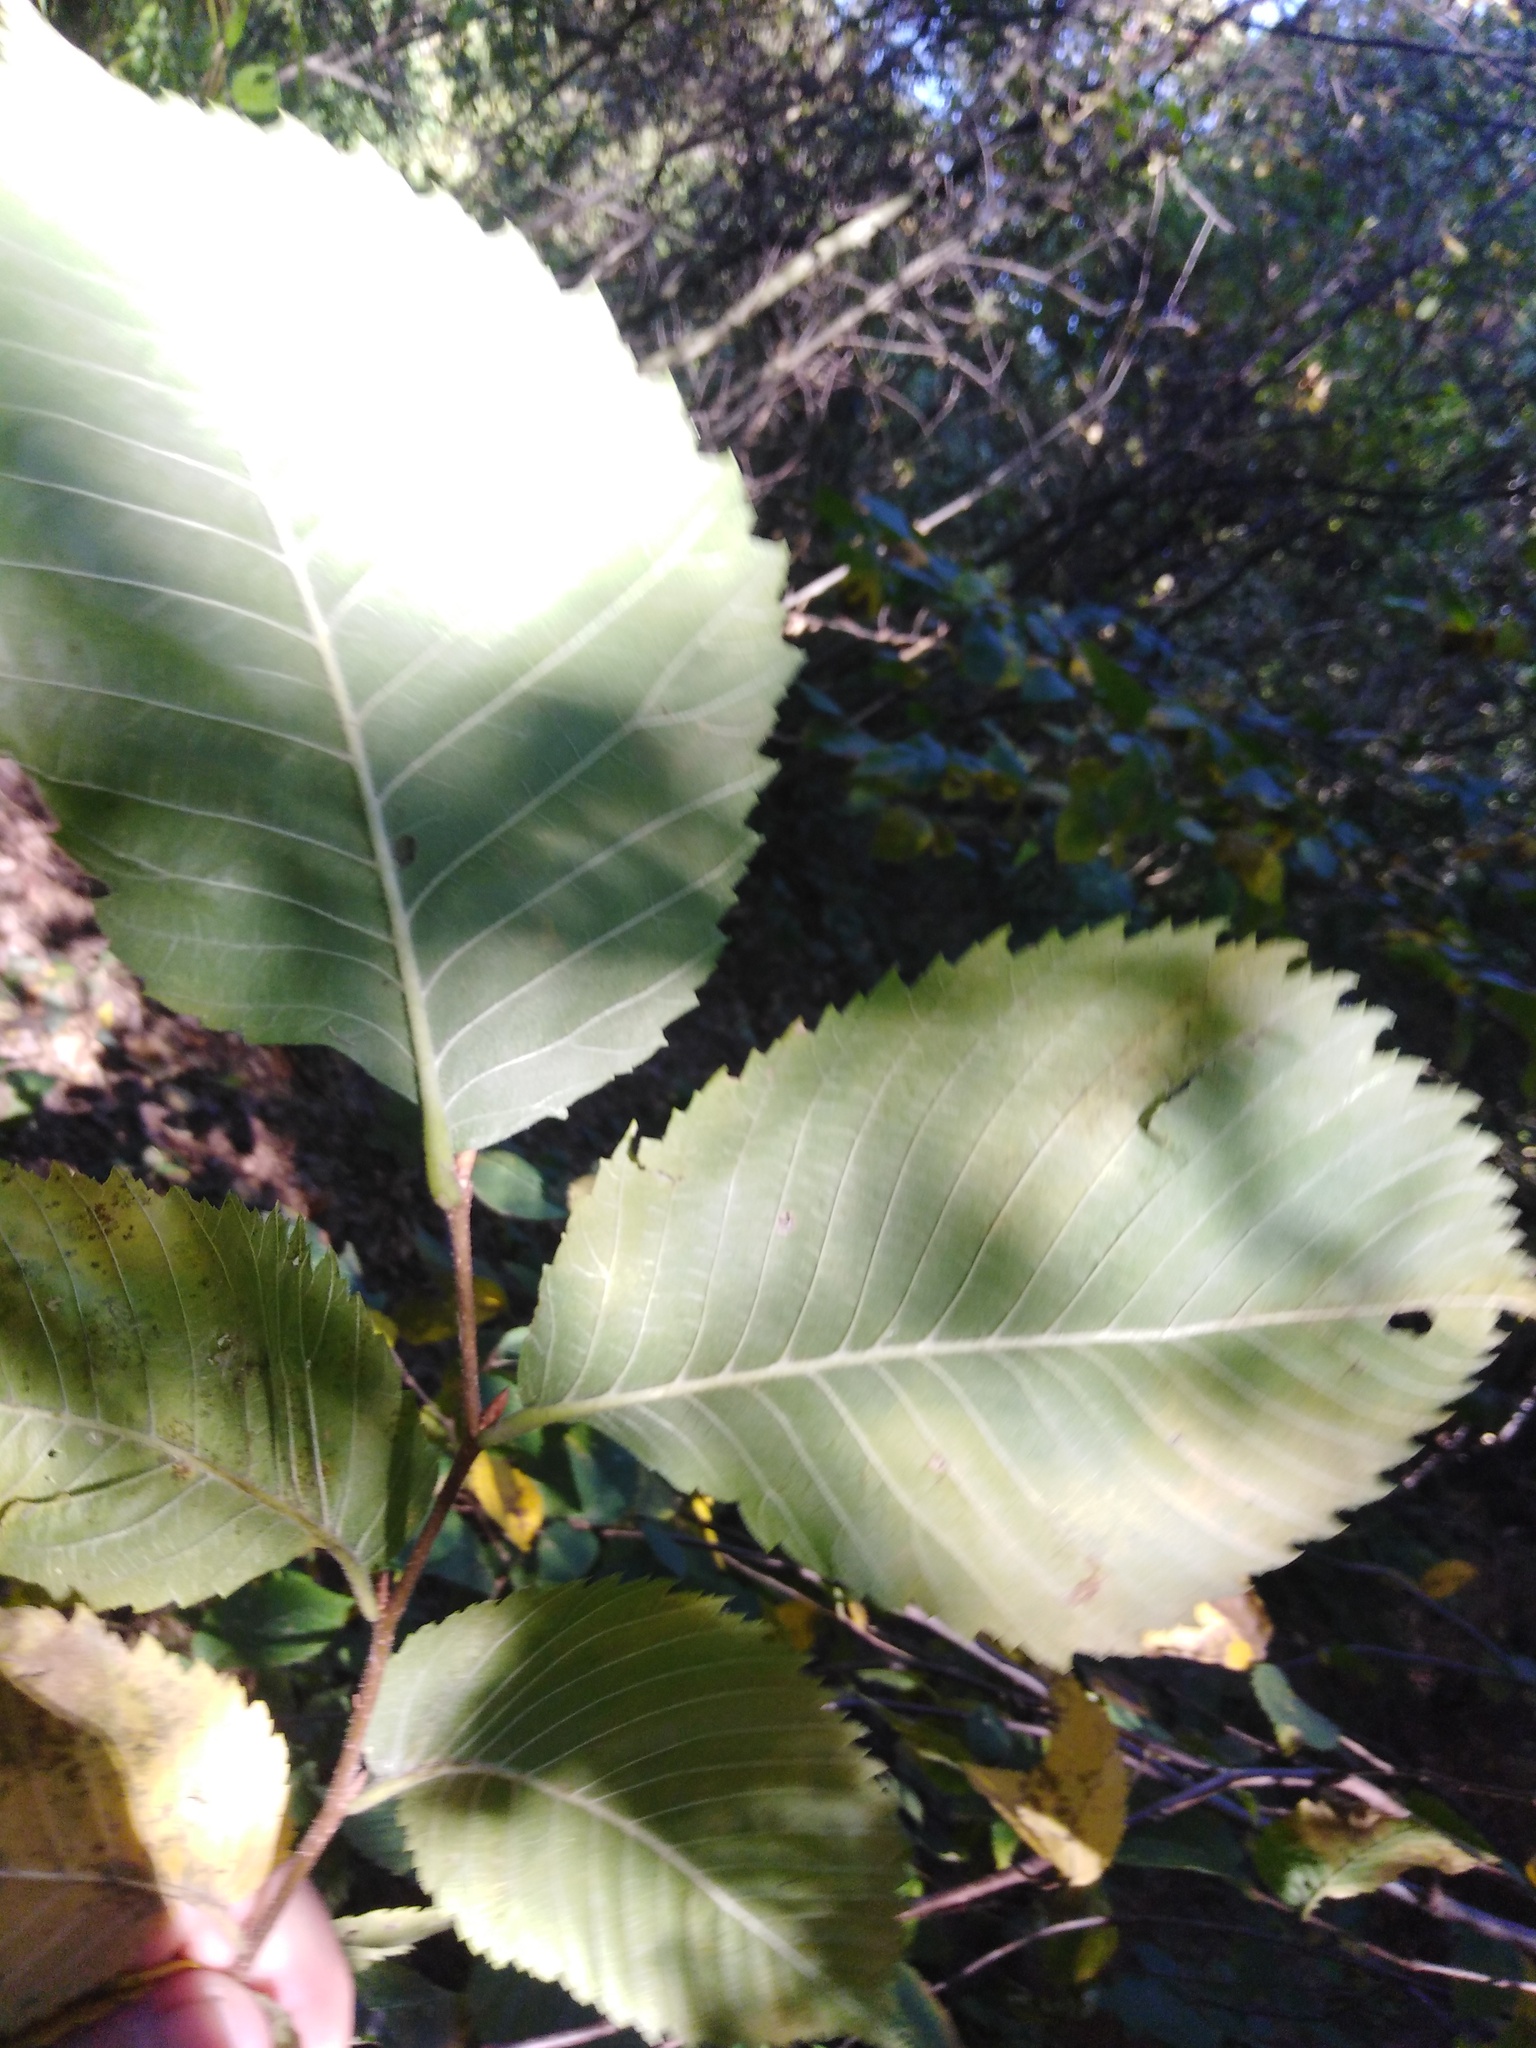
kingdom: Plantae
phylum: Tracheophyta
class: Magnoliopsida
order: Rosales
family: Ulmaceae
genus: Ulmus
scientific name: Ulmus laevis
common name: European white-elm
